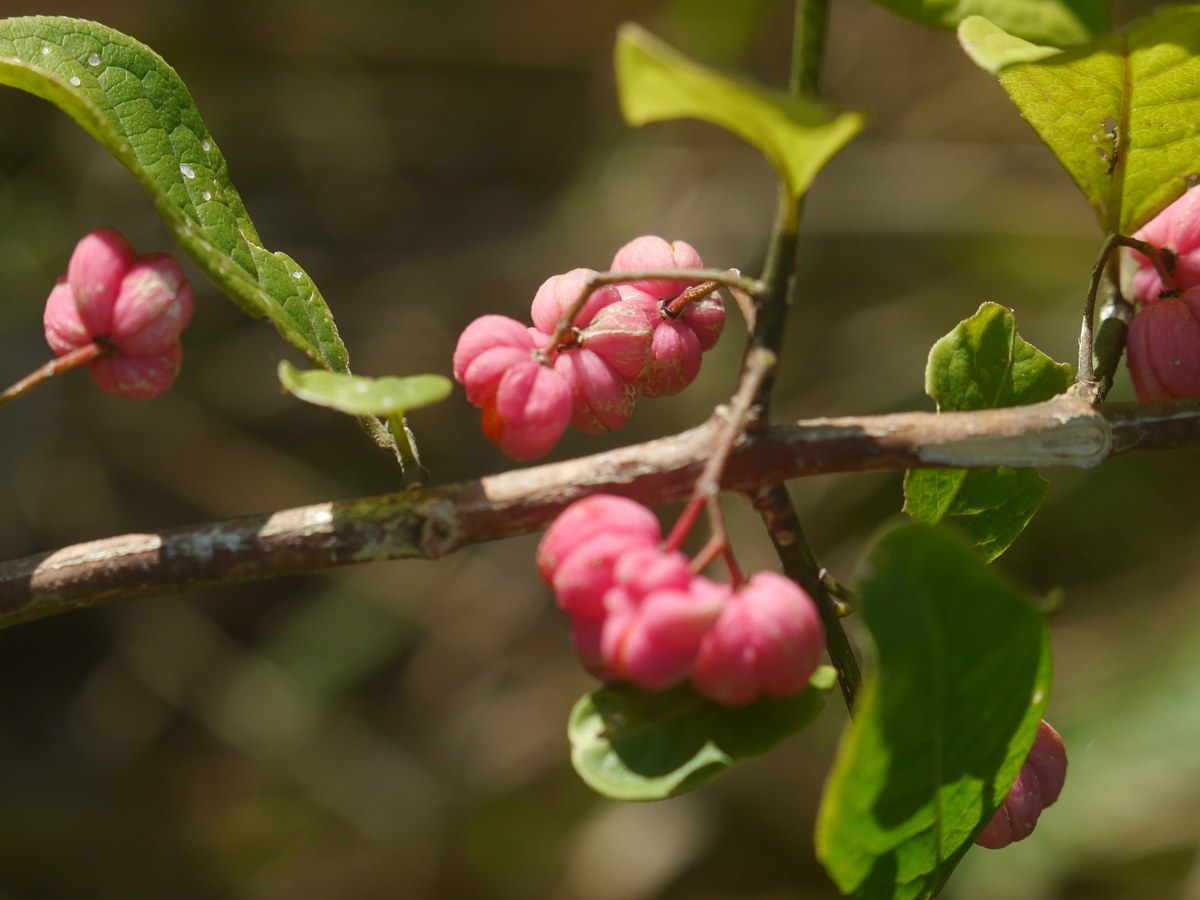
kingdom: Plantae
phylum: Tracheophyta
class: Magnoliopsida
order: Celastrales
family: Celastraceae
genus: Euonymus
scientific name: Euonymus europaeus
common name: Spindle
